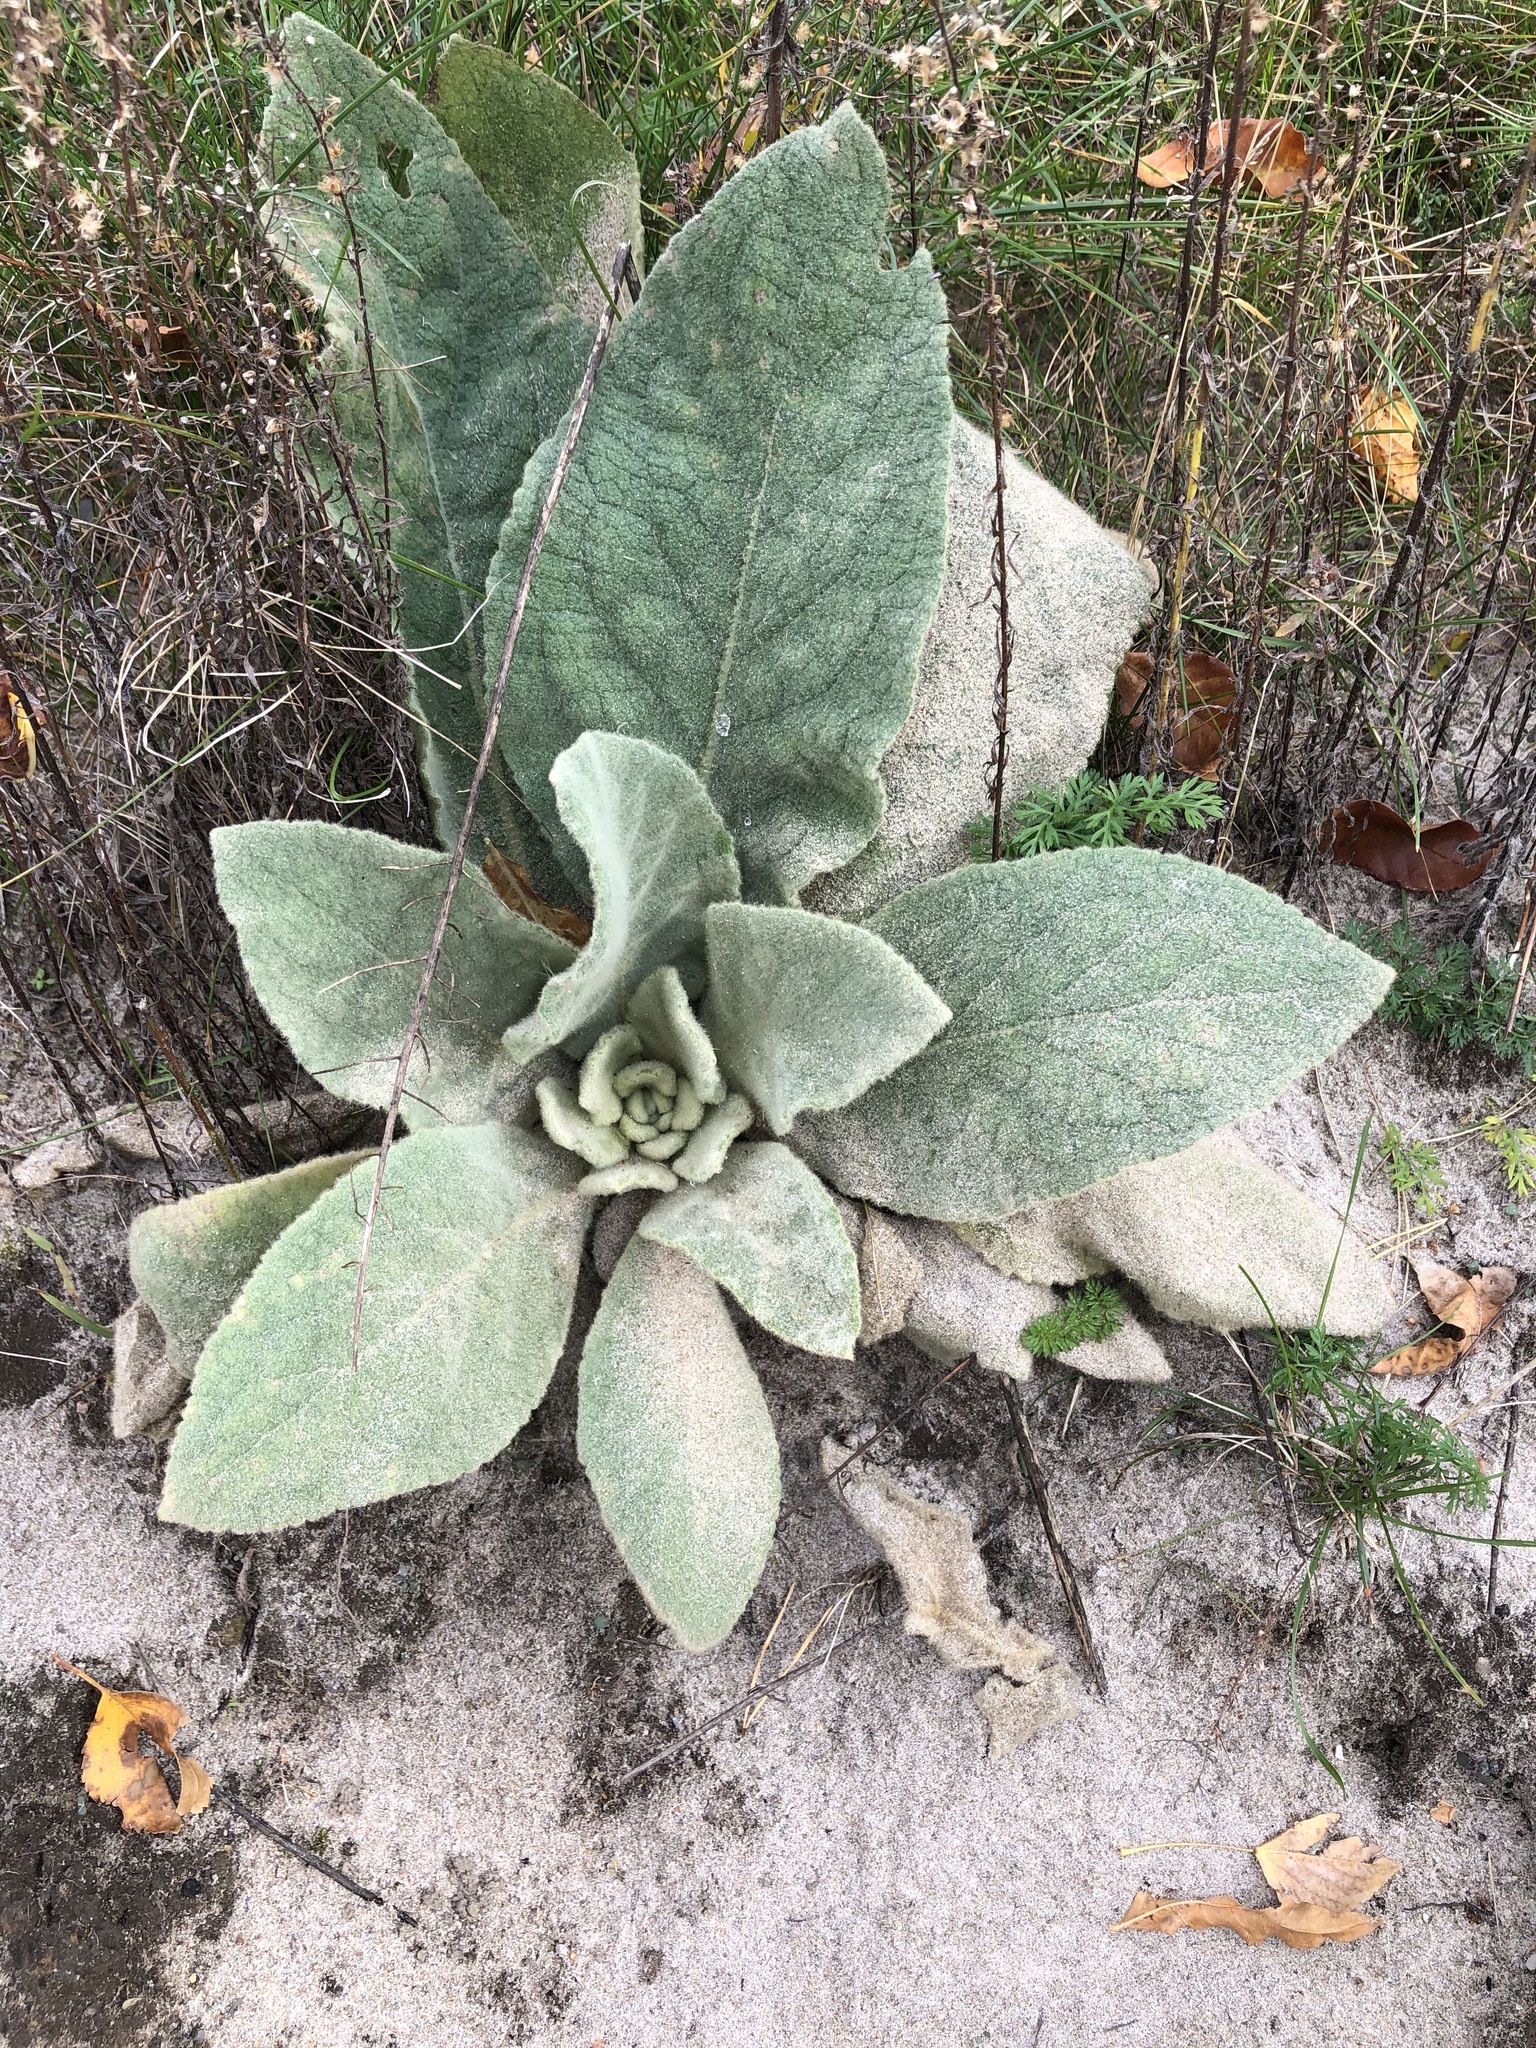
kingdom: Plantae
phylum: Tracheophyta
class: Magnoliopsida
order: Lamiales
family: Scrophulariaceae
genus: Verbascum
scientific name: Verbascum thapsus
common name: Common mullein
